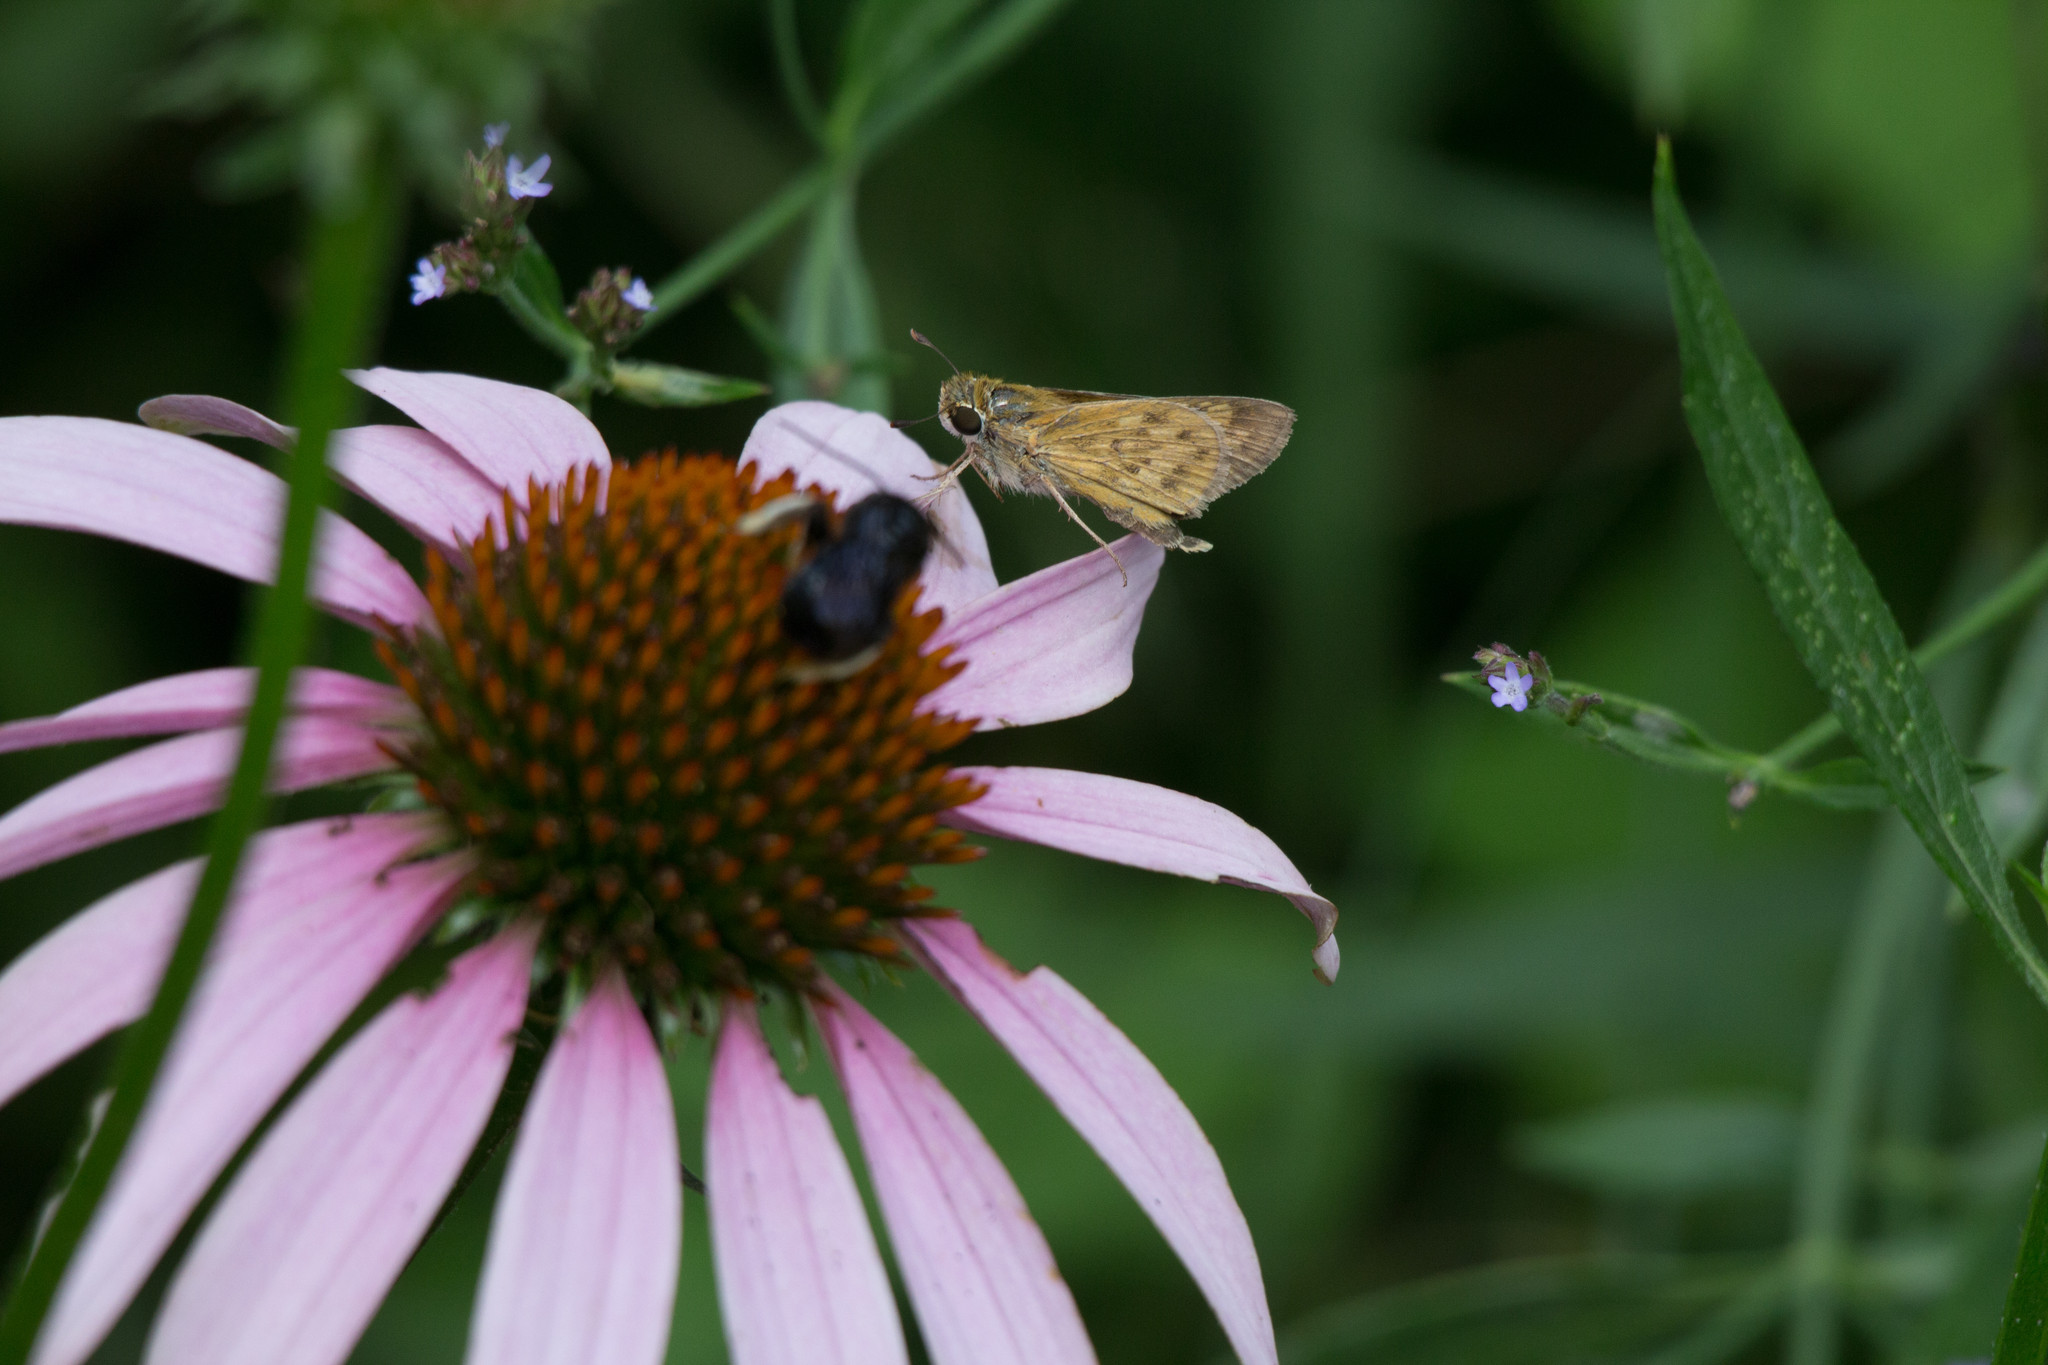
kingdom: Animalia
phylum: Arthropoda
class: Insecta
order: Lepidoptera
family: Hesperiidae
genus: Hylephila
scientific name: Hylephila phyleus
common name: Fiery skipper
